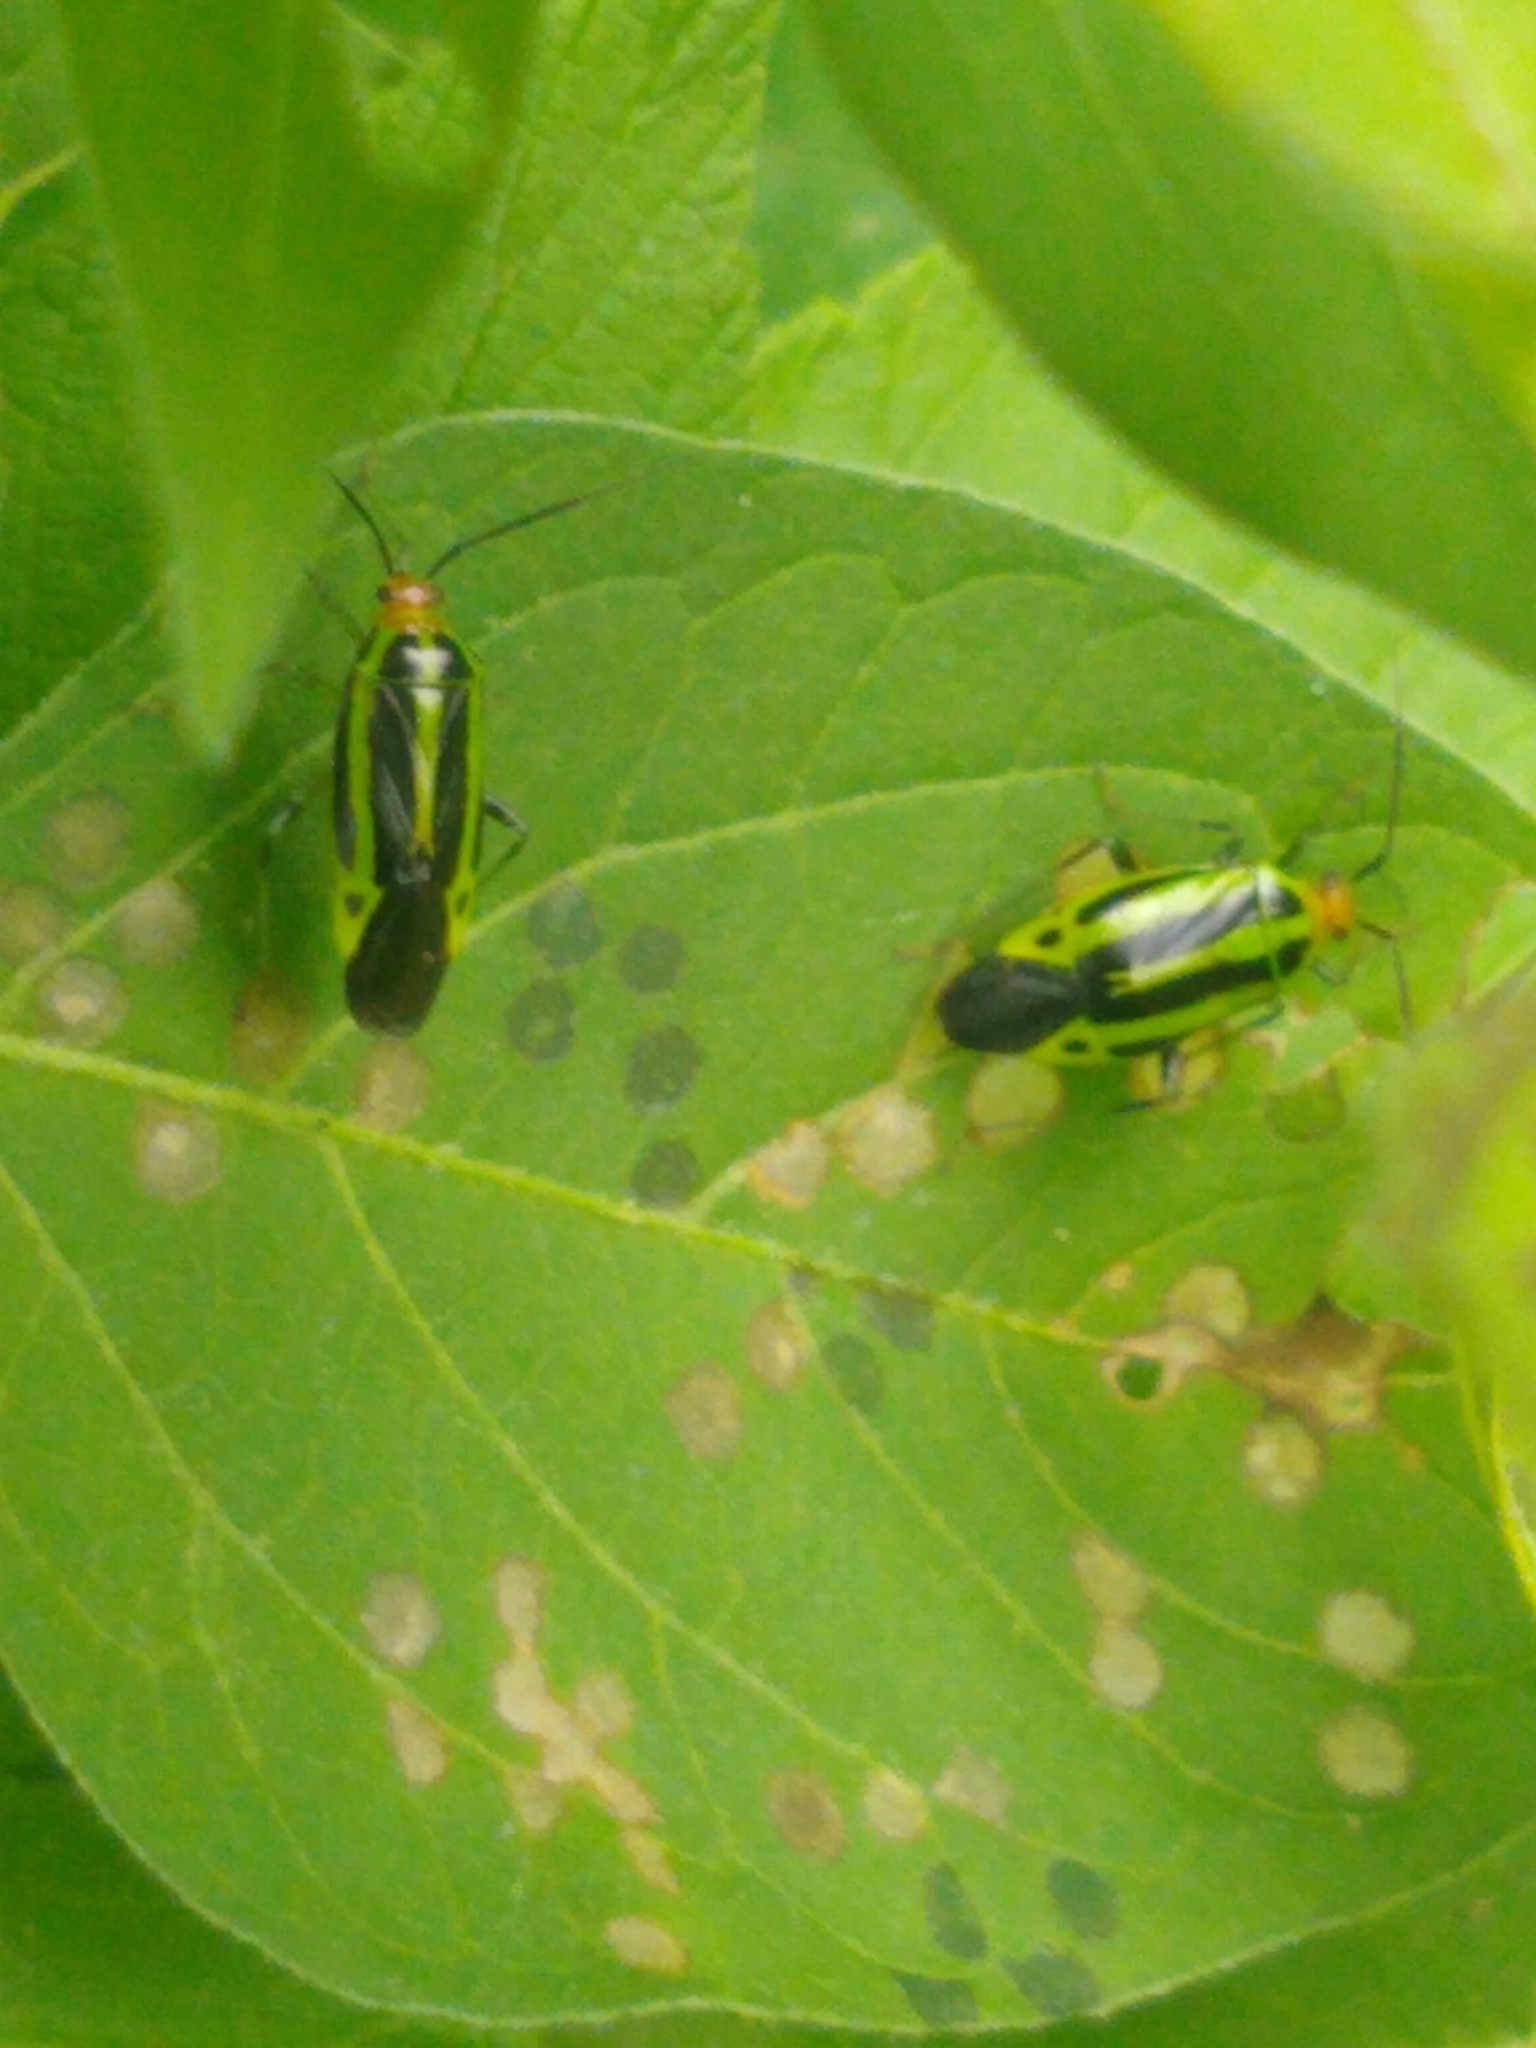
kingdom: Animalia
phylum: Arthropoda
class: Insecta
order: Hemiptera
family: Miridae
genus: Poecilocapsus
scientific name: Poecilocapsus lineatus
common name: Four-lined plant bug
